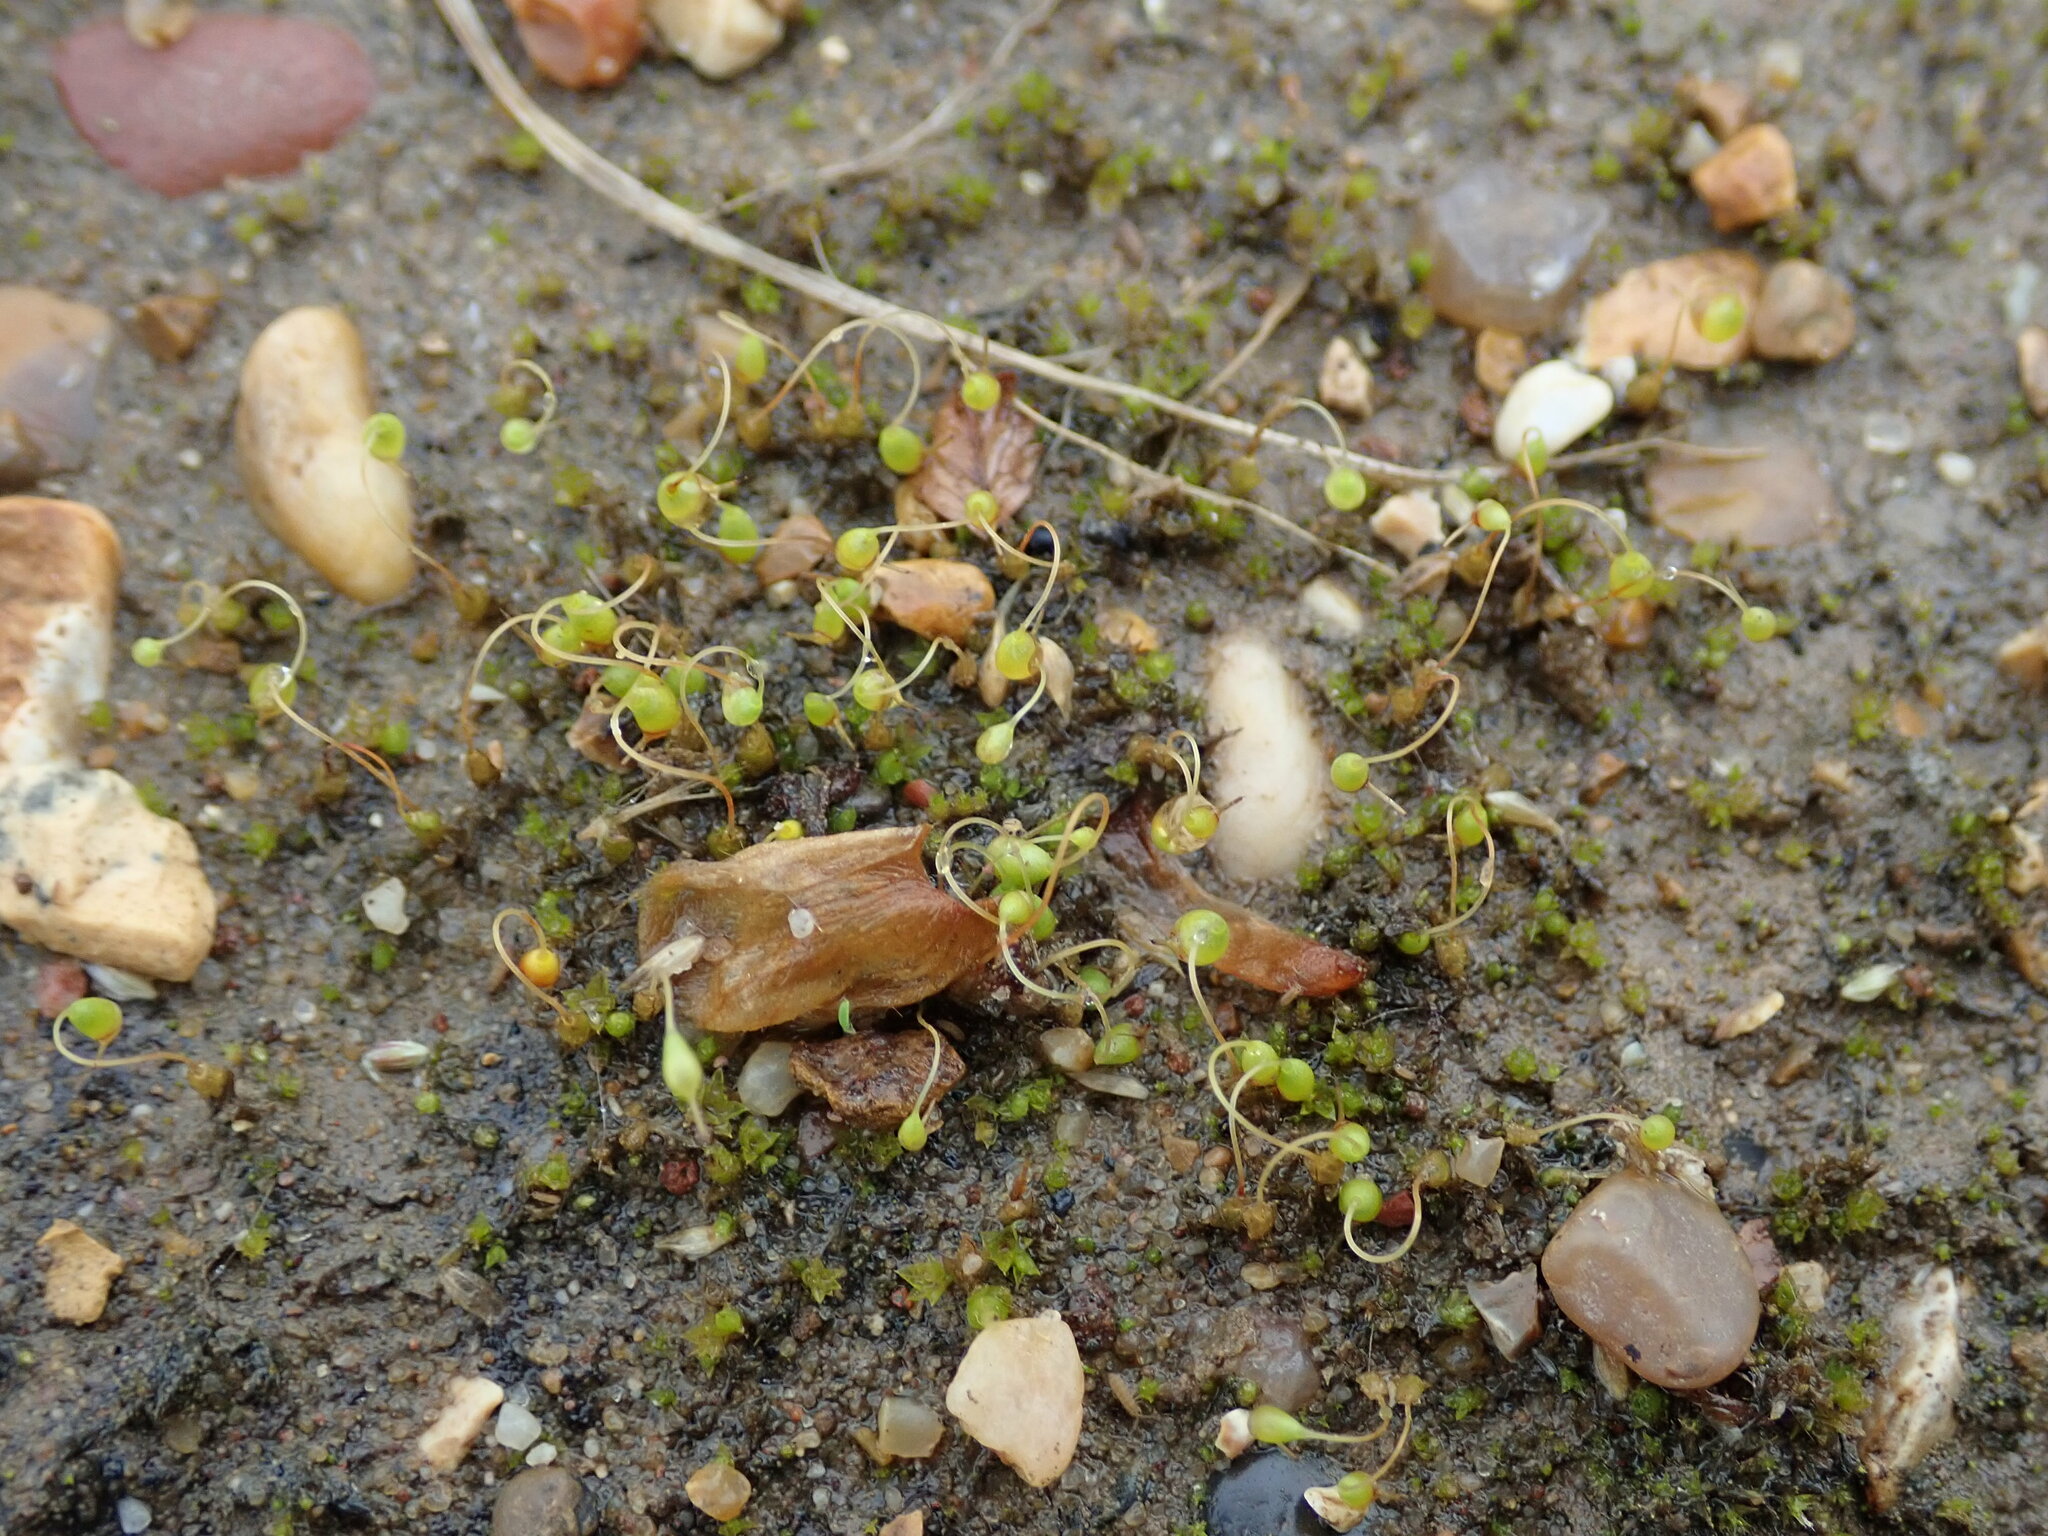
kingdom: Plantae
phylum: Bryophyta
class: Bryopsida
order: Funariales
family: Funariaceae
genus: Funaria
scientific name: Funaria hygrometrica
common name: Common cord moss
